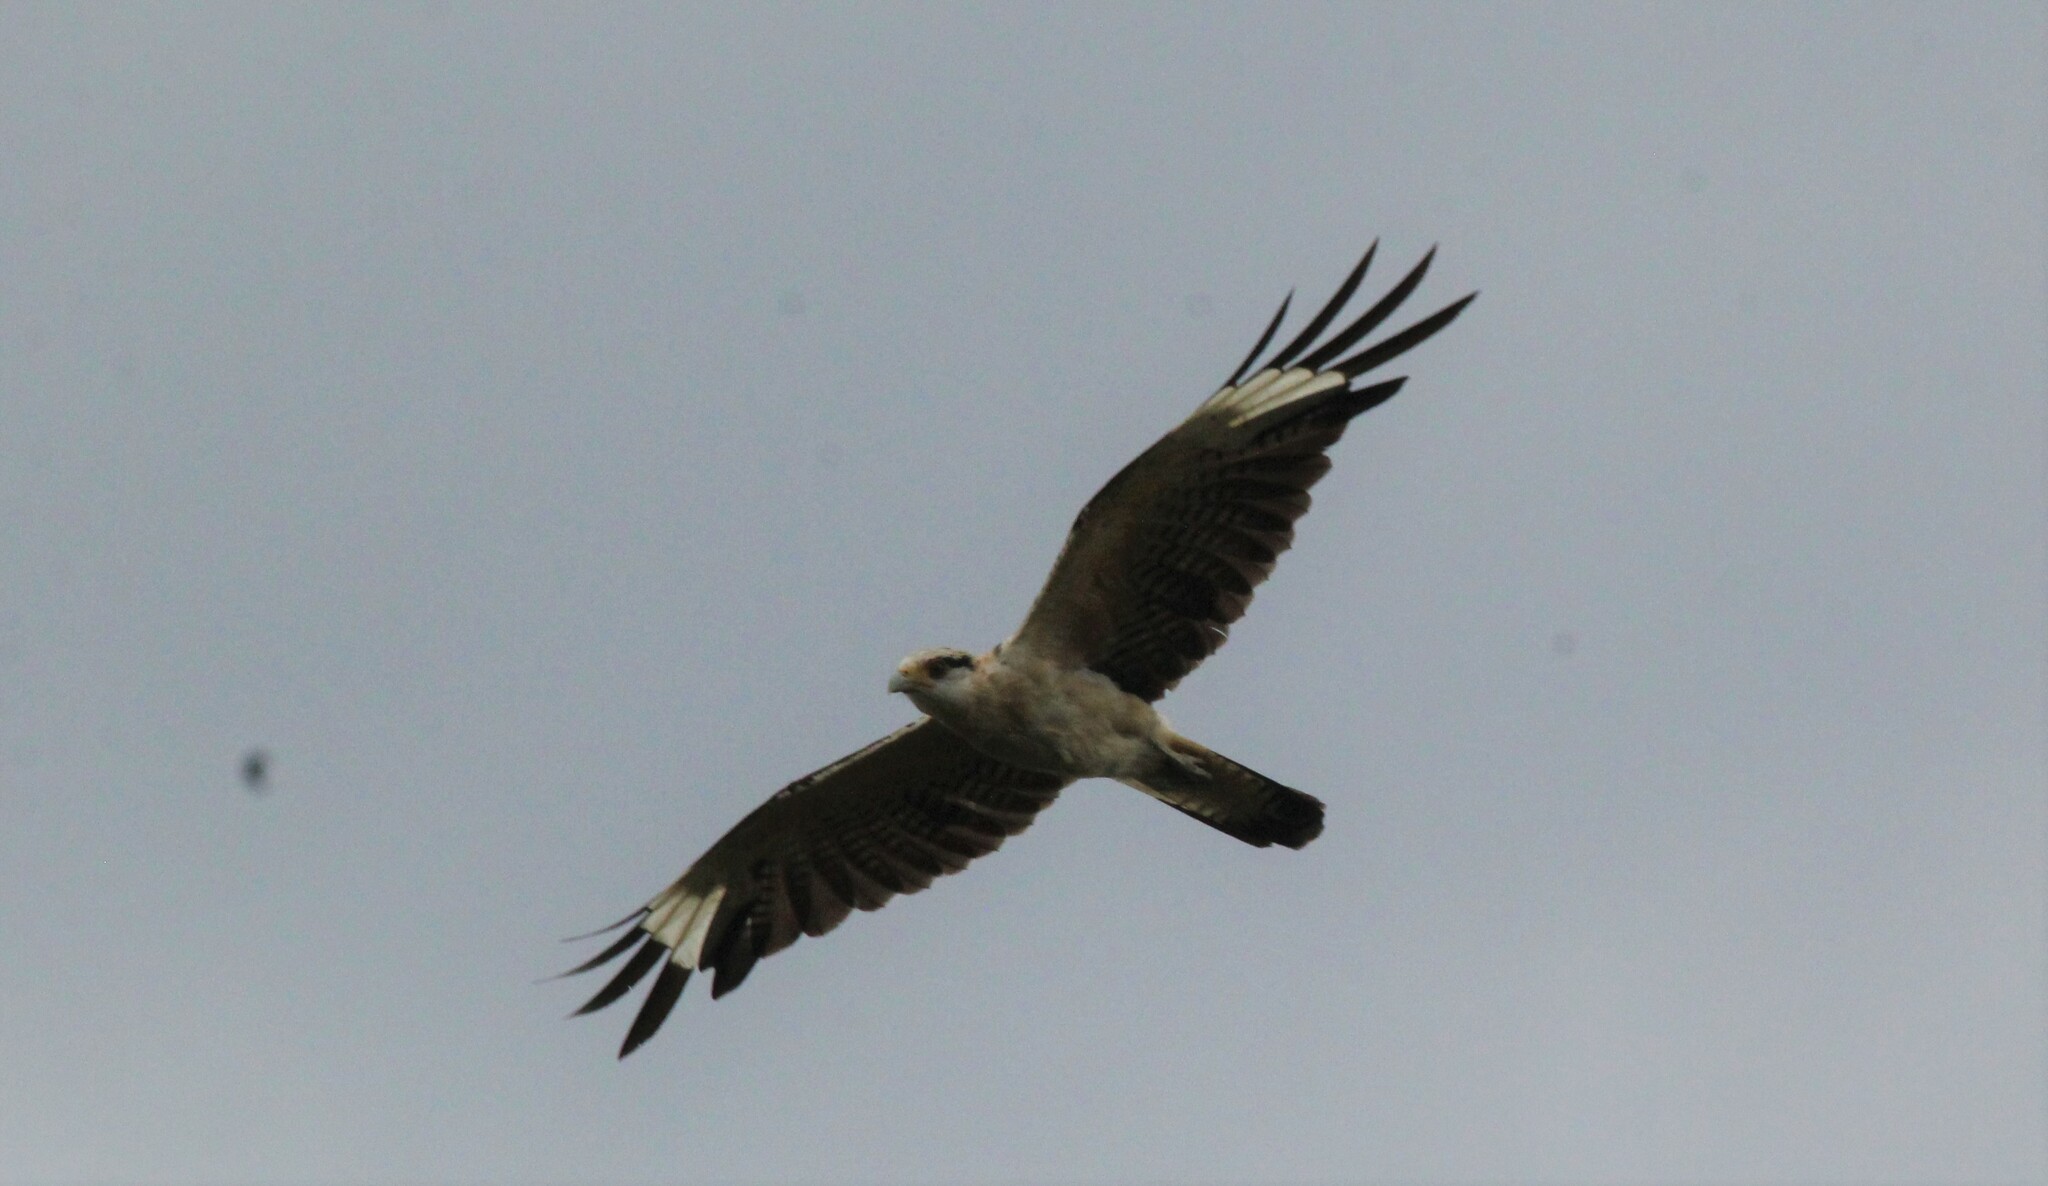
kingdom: Animalia
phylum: Chordata
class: Aves
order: Falconiformes
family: Falconidae
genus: Daptrius
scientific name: Daptrius
